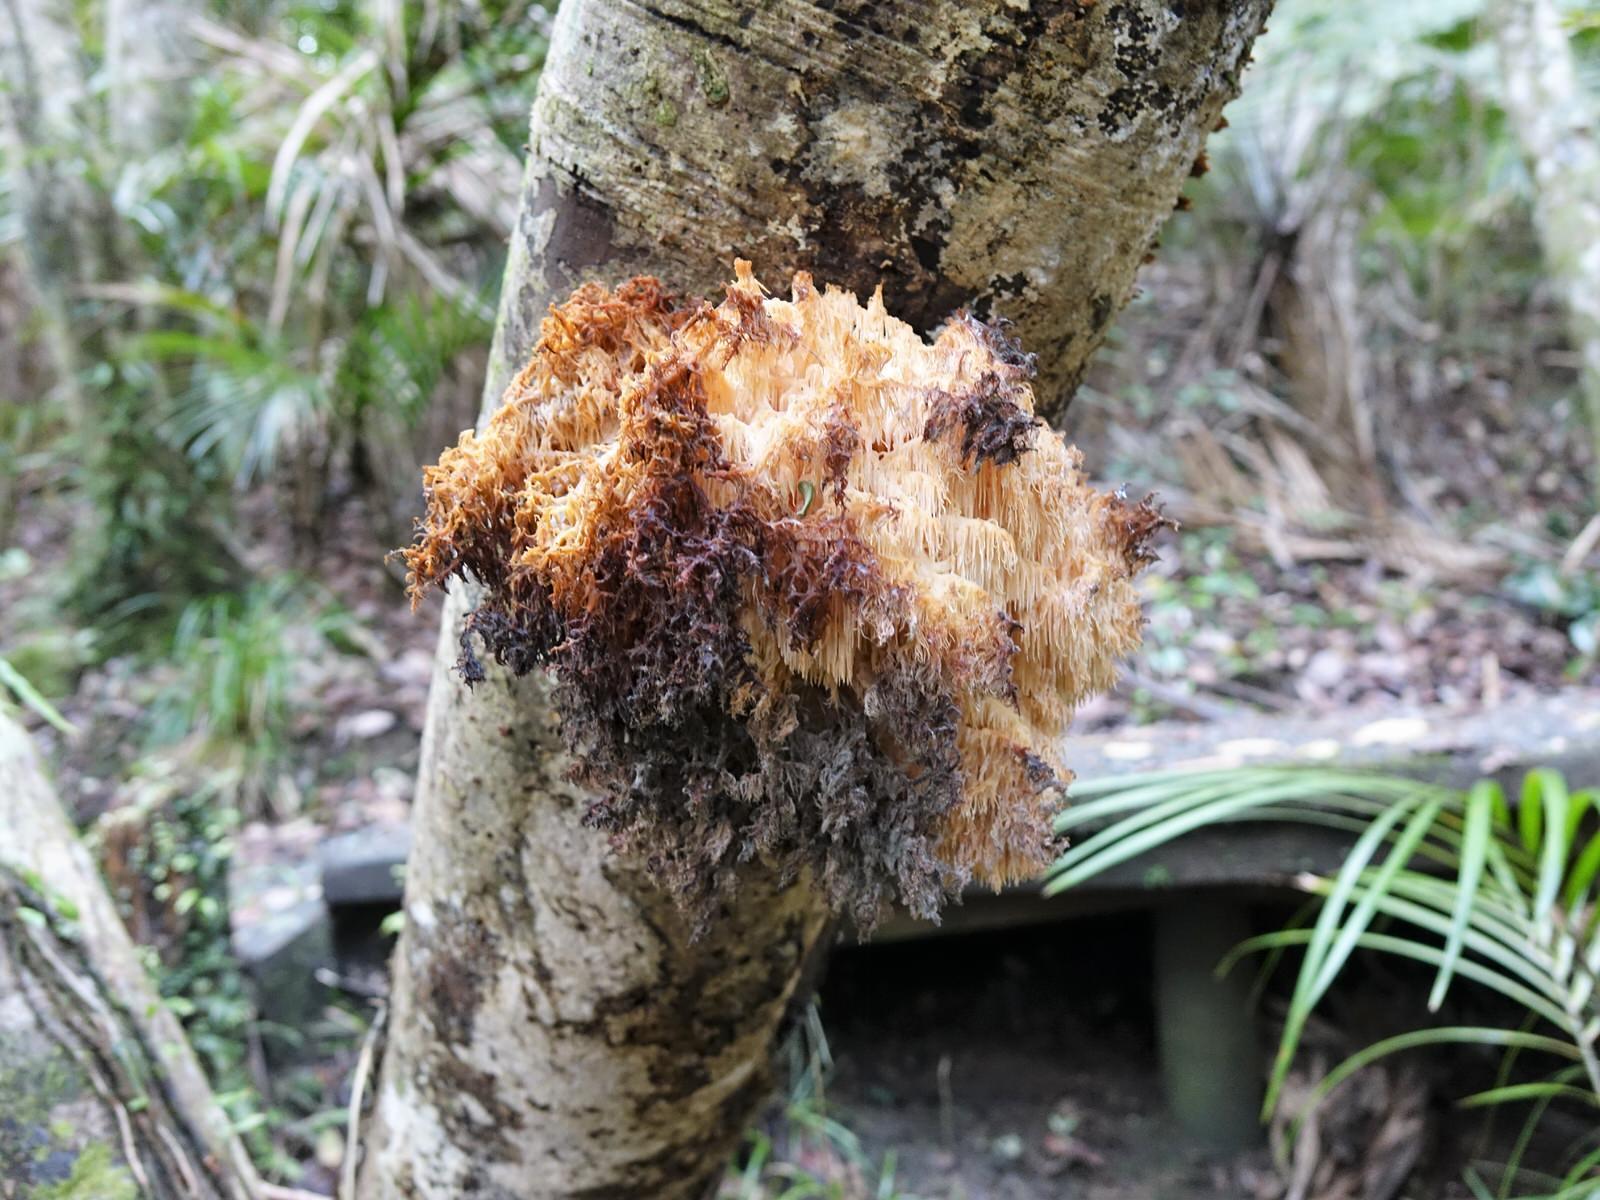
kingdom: Fungi
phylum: Basidiomycota
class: Agaricomycetes
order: Russulales
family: Hericiaceae
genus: Hericium
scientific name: Hericium novae-zealandiae
